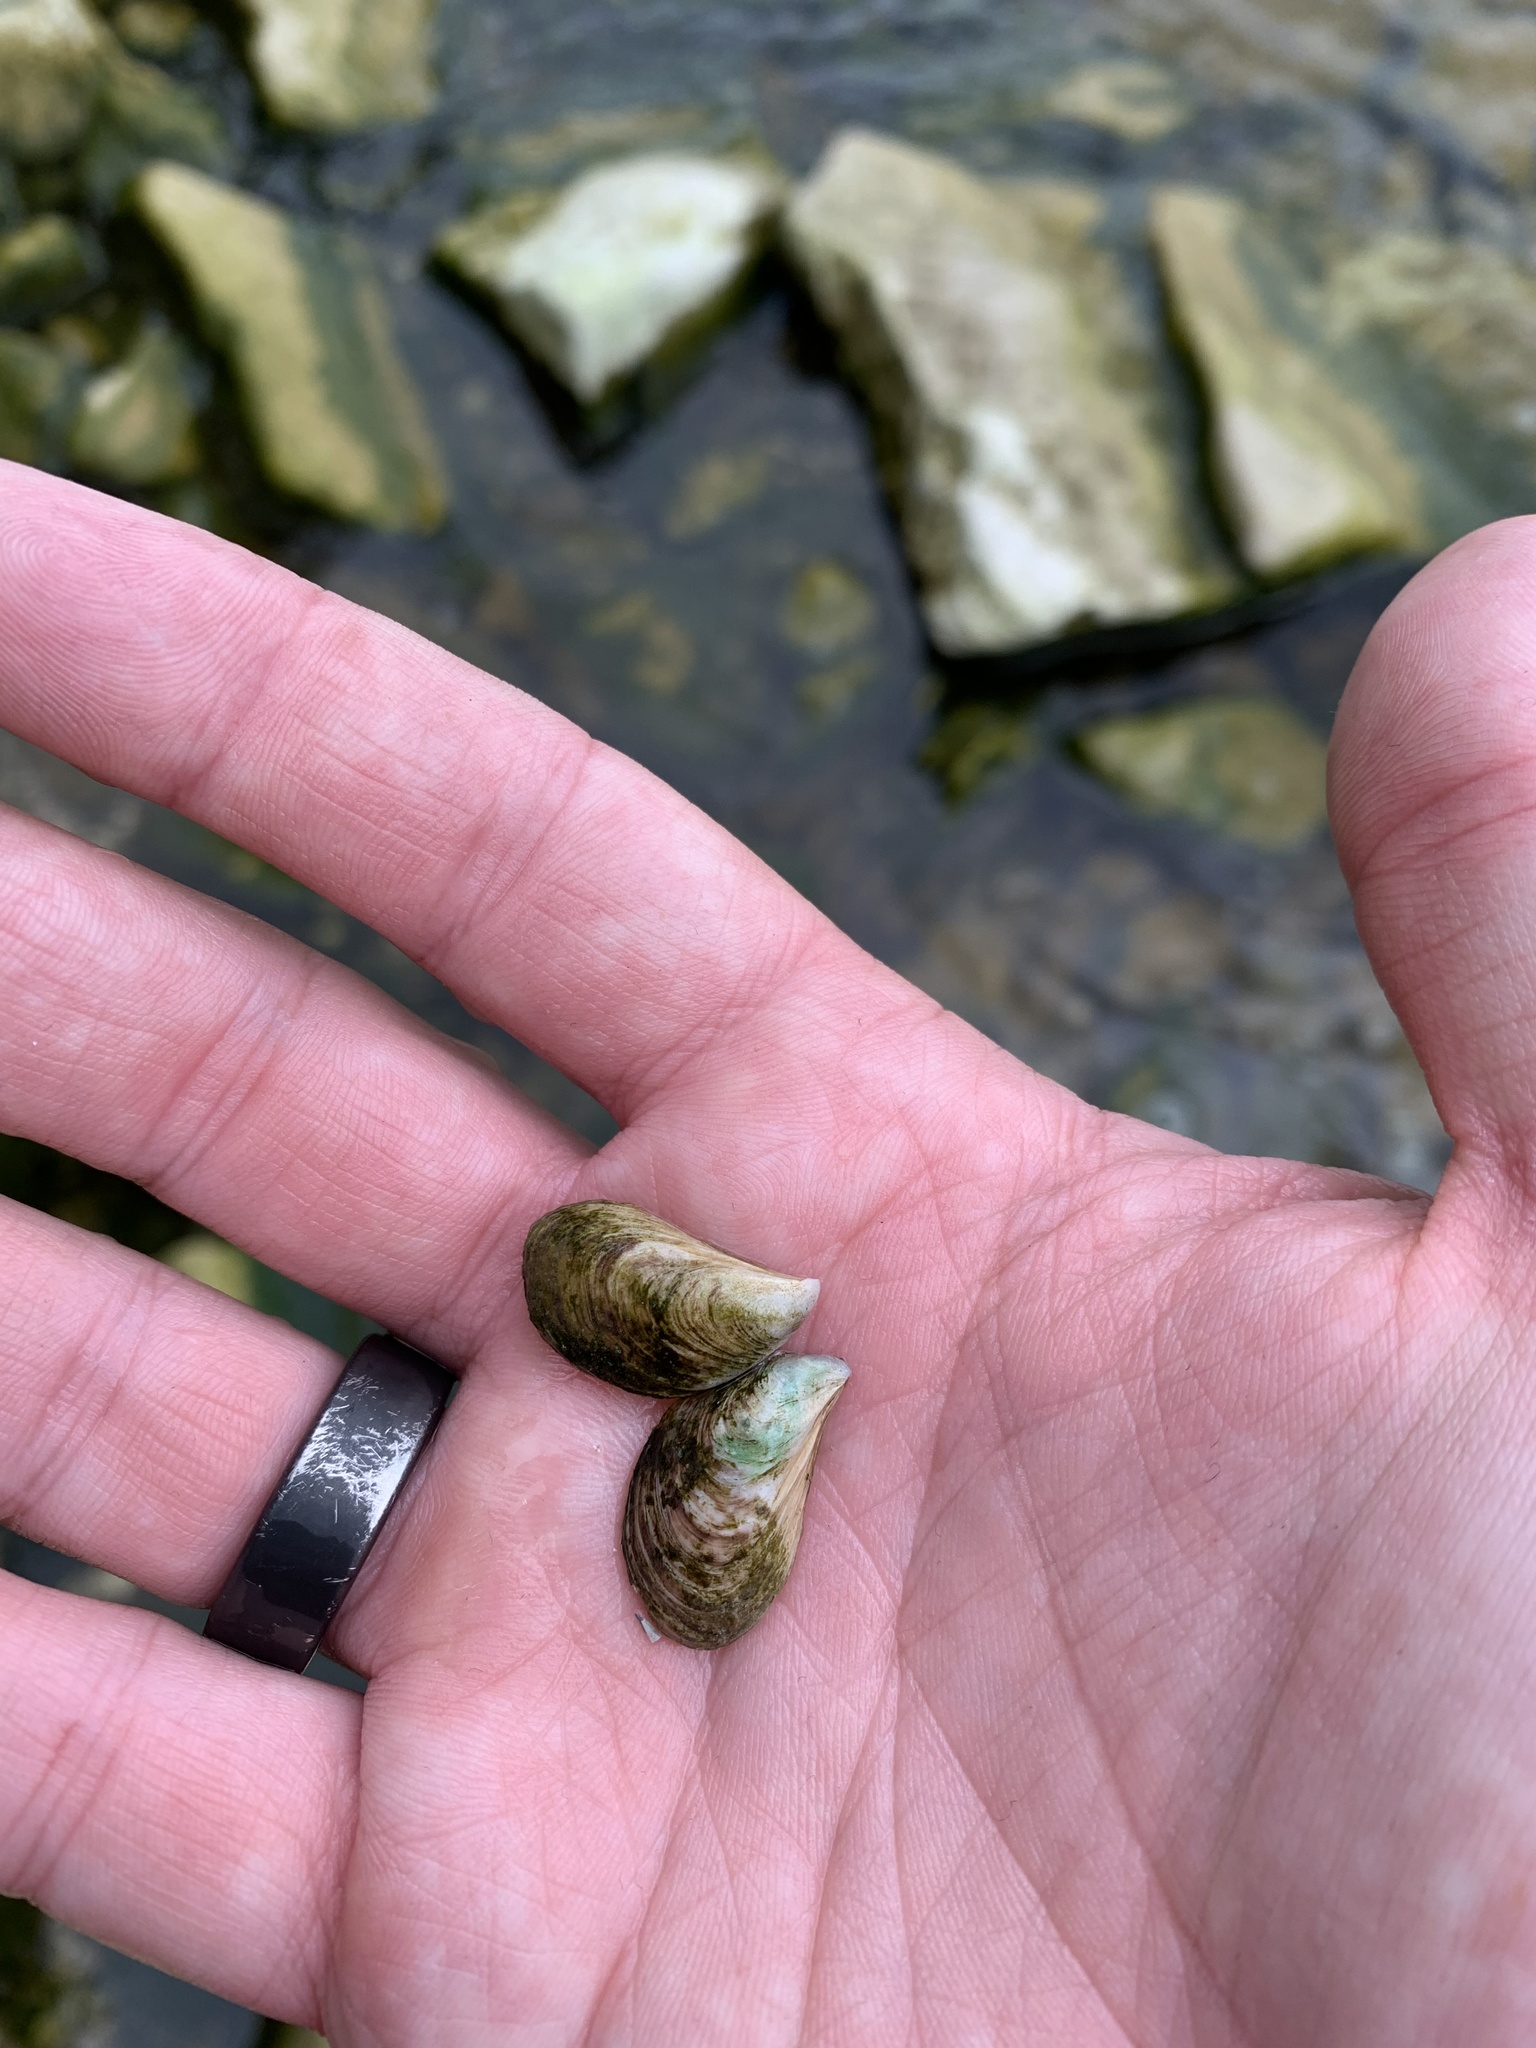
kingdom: Animalia
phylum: Mollusca
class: Bivalvia
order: Myida
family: Dreissenidae
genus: Dreissena
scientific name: Dreissena bugensis
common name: Quagga mussel
